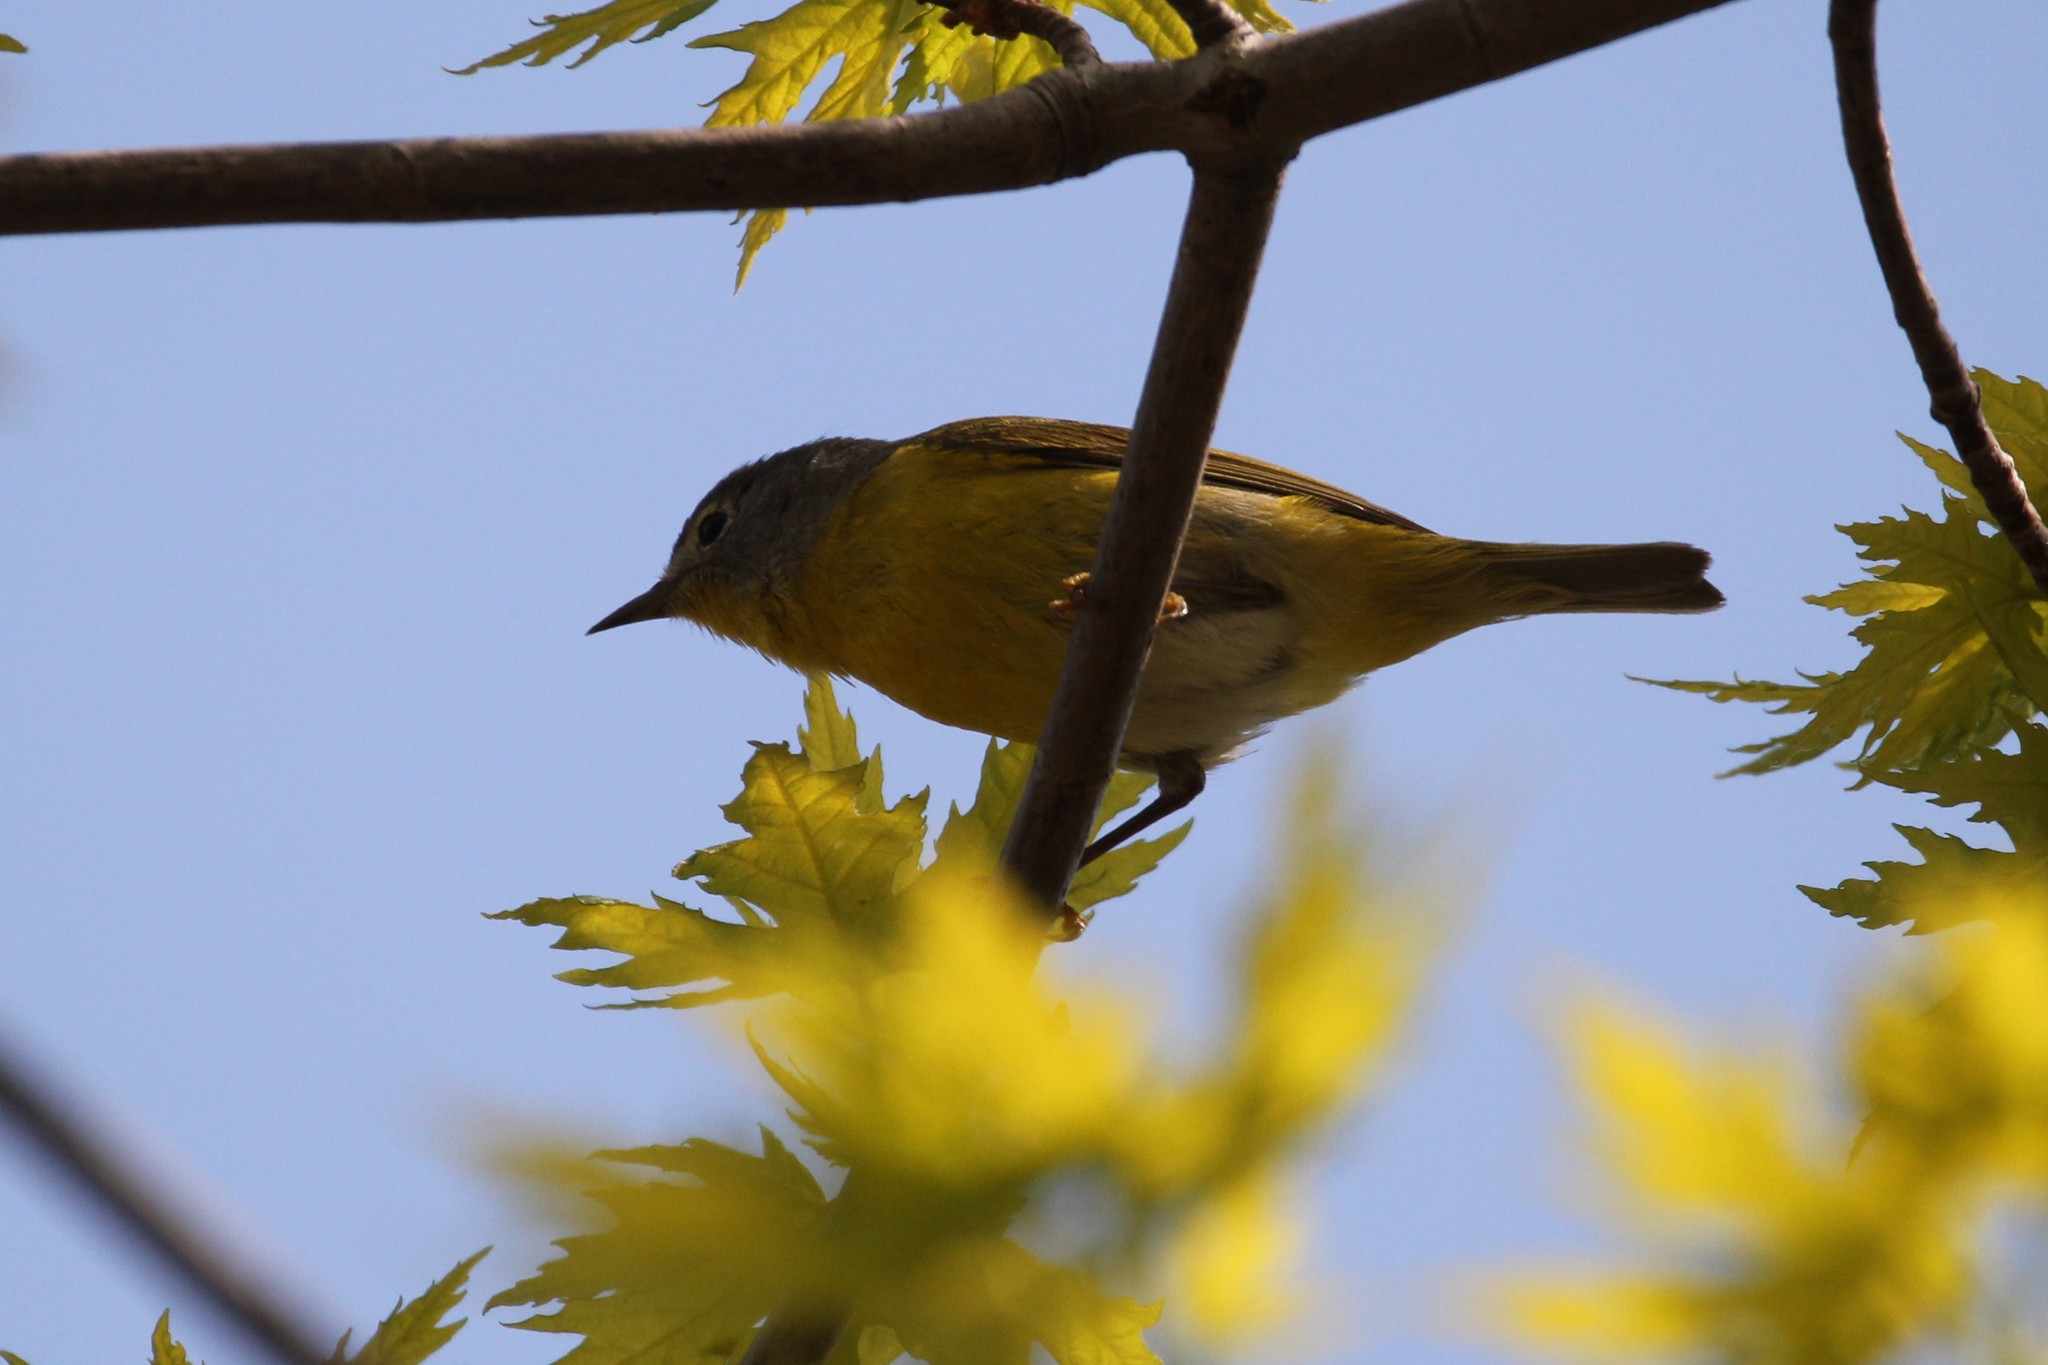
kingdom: Animalia
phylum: Chordata
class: Aves
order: Passeriformes
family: Parulidae
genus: Leiothlypis
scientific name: Leiothlypis ruficapilla
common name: Nashville warbler
